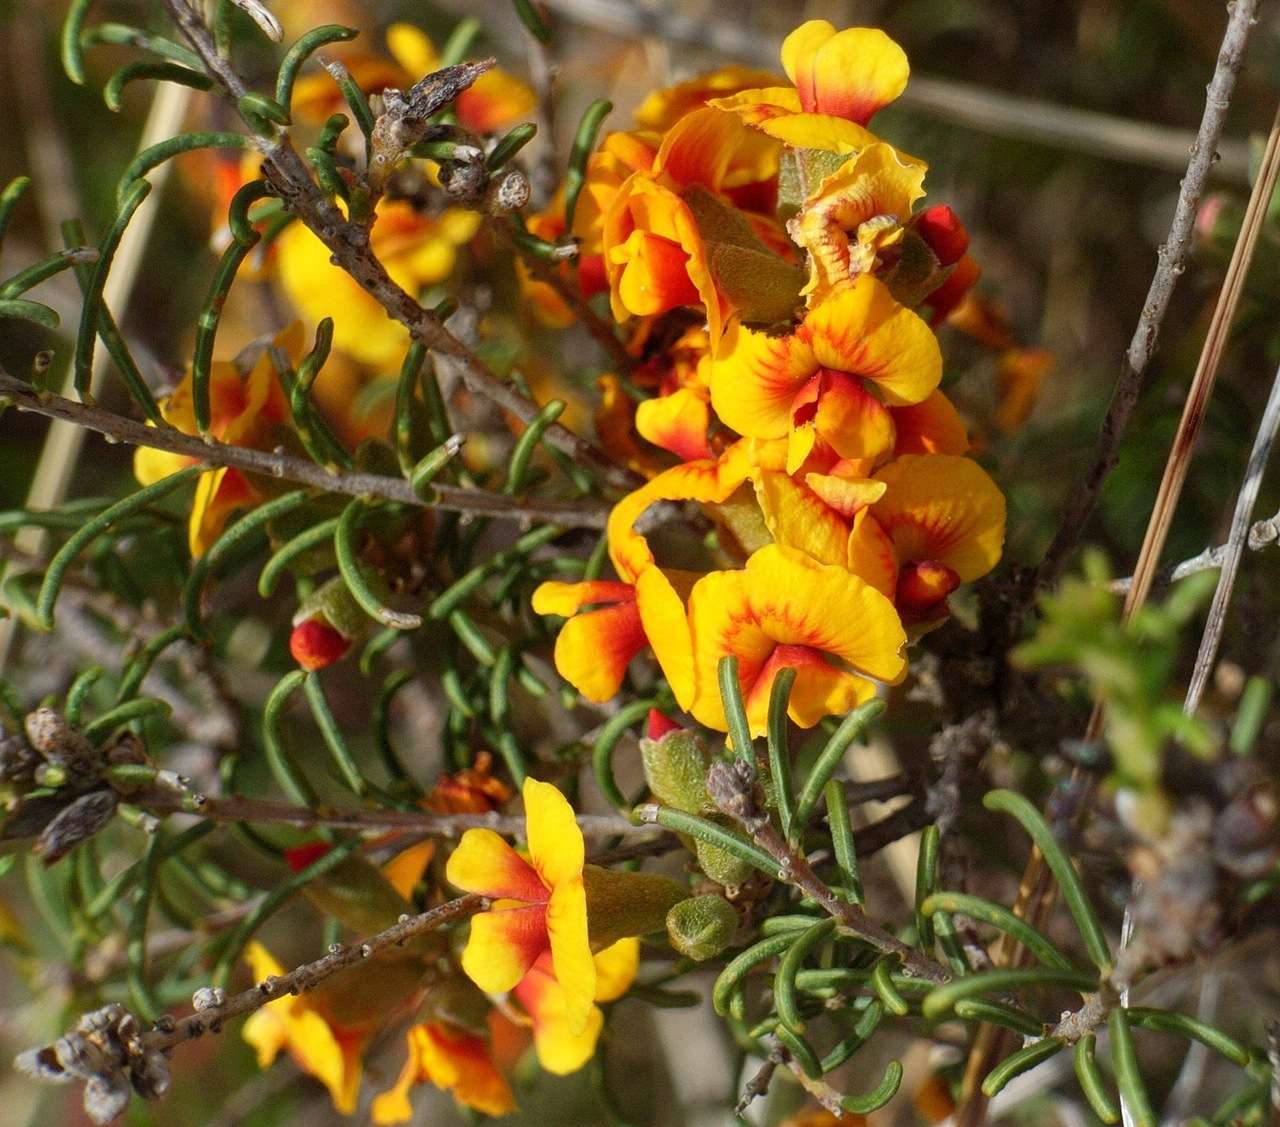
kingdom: Plantae
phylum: Tracheophyta
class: Magnoliopsida
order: Fabales
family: Fabaceae
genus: Dillwynia
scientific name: Dillwynia cinerascens
